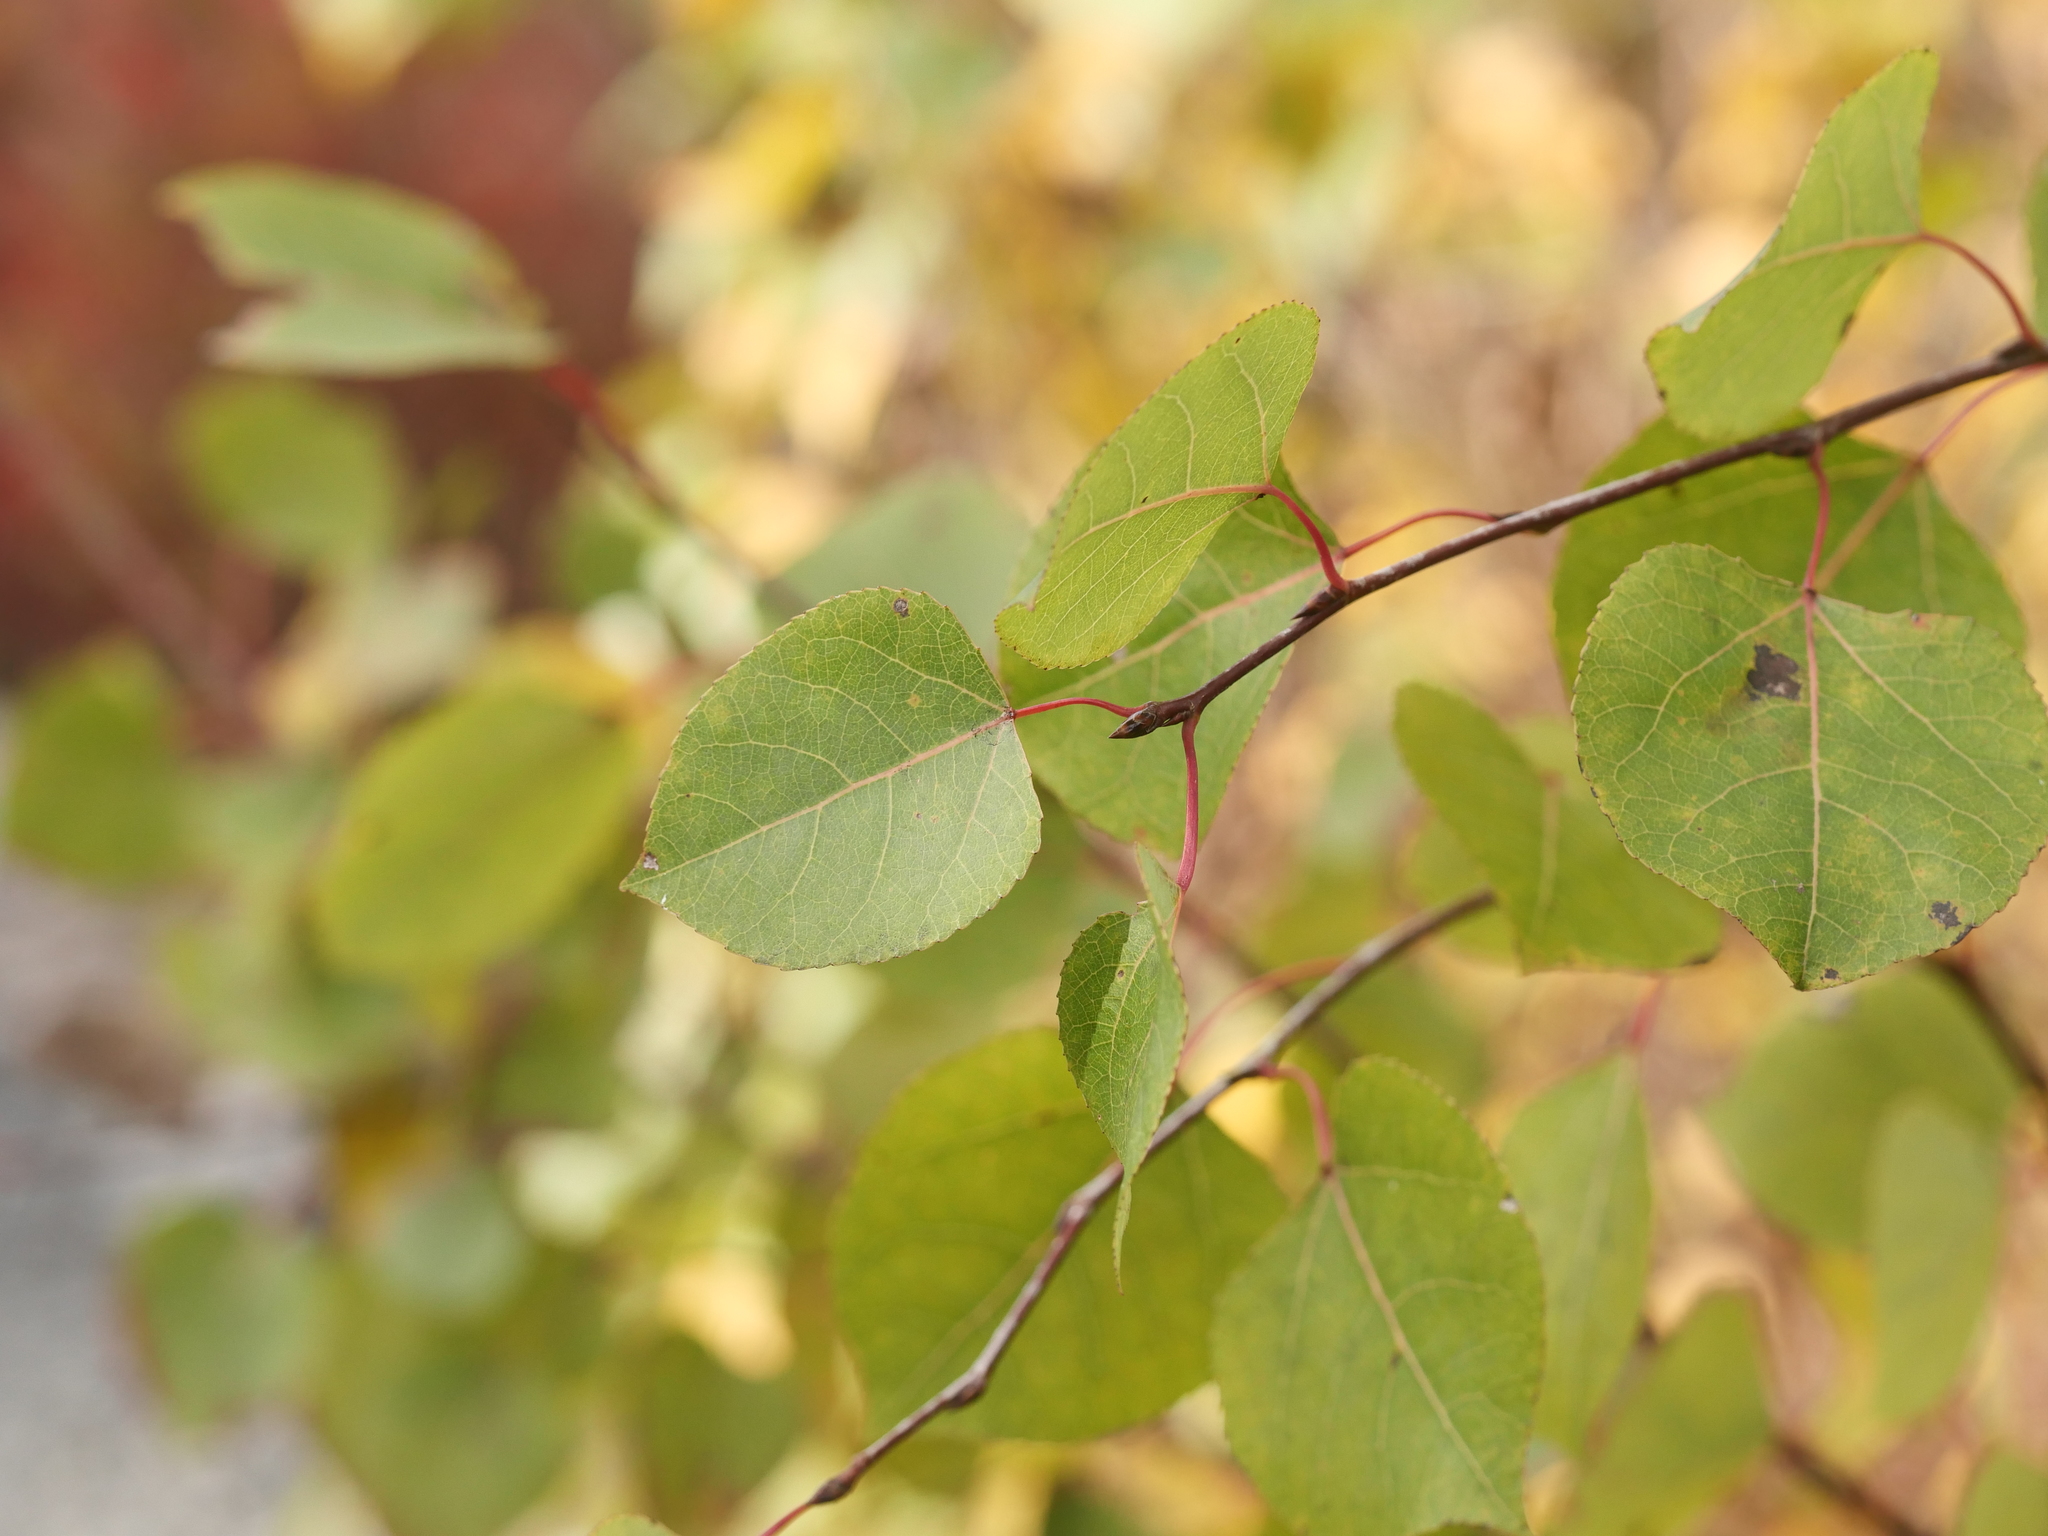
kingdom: Plantae
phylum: Tracheophyta
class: Magnoliopsida
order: Malpighiales
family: Salicaceae
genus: Populus
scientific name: Populus tremuloides
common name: Quaking aspen
